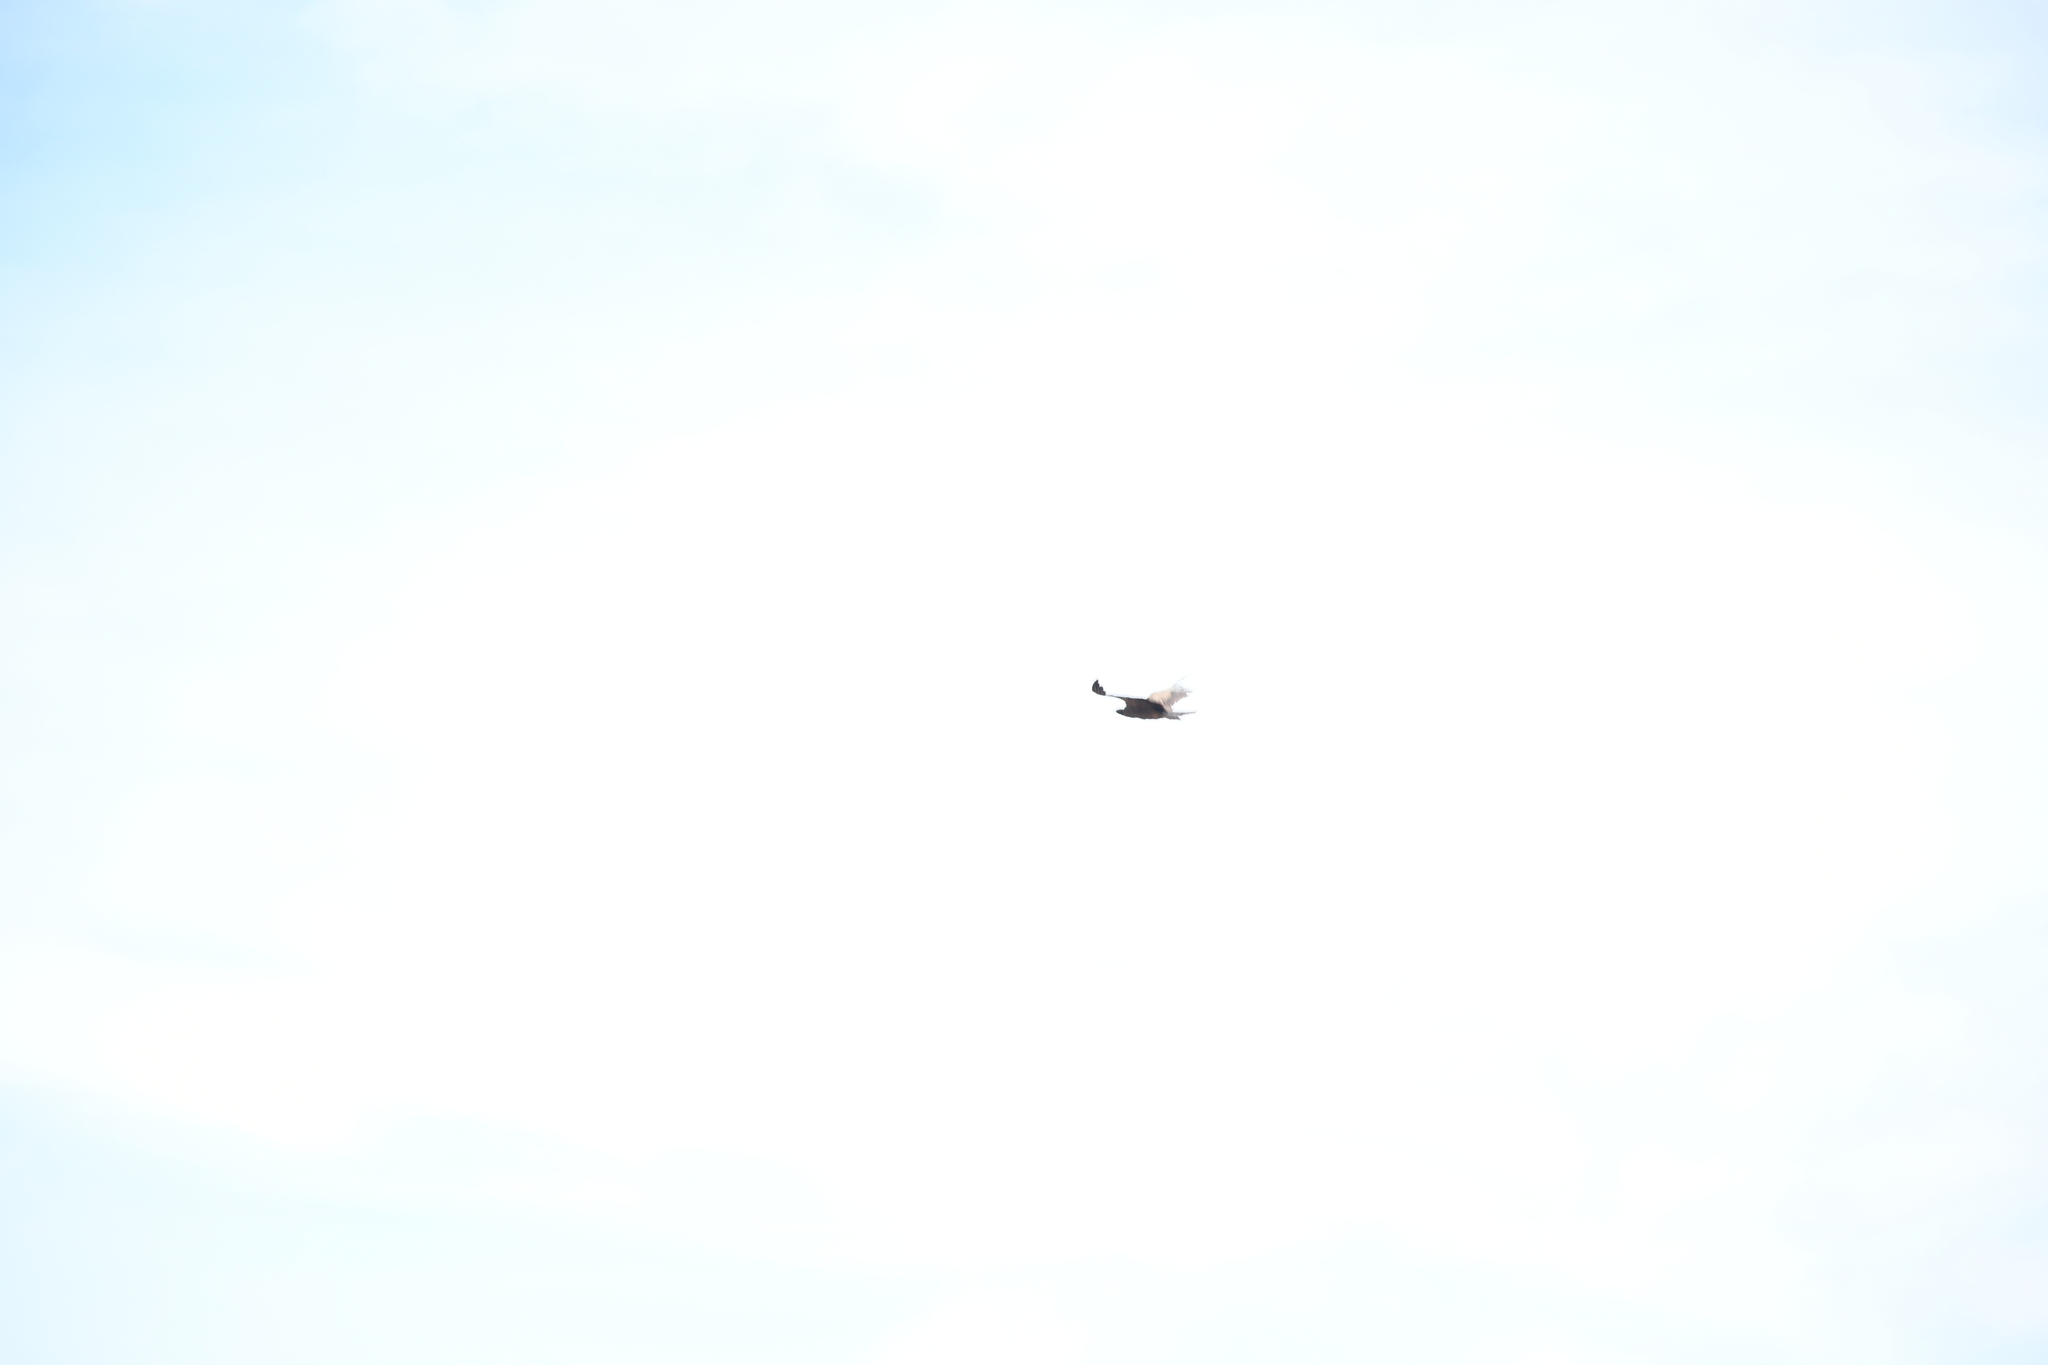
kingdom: Animalia
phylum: Chordata
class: Aves
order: Accipitriformes
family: Cathartidae
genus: Vultur
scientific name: Vultur gryphus
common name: Andean condor
